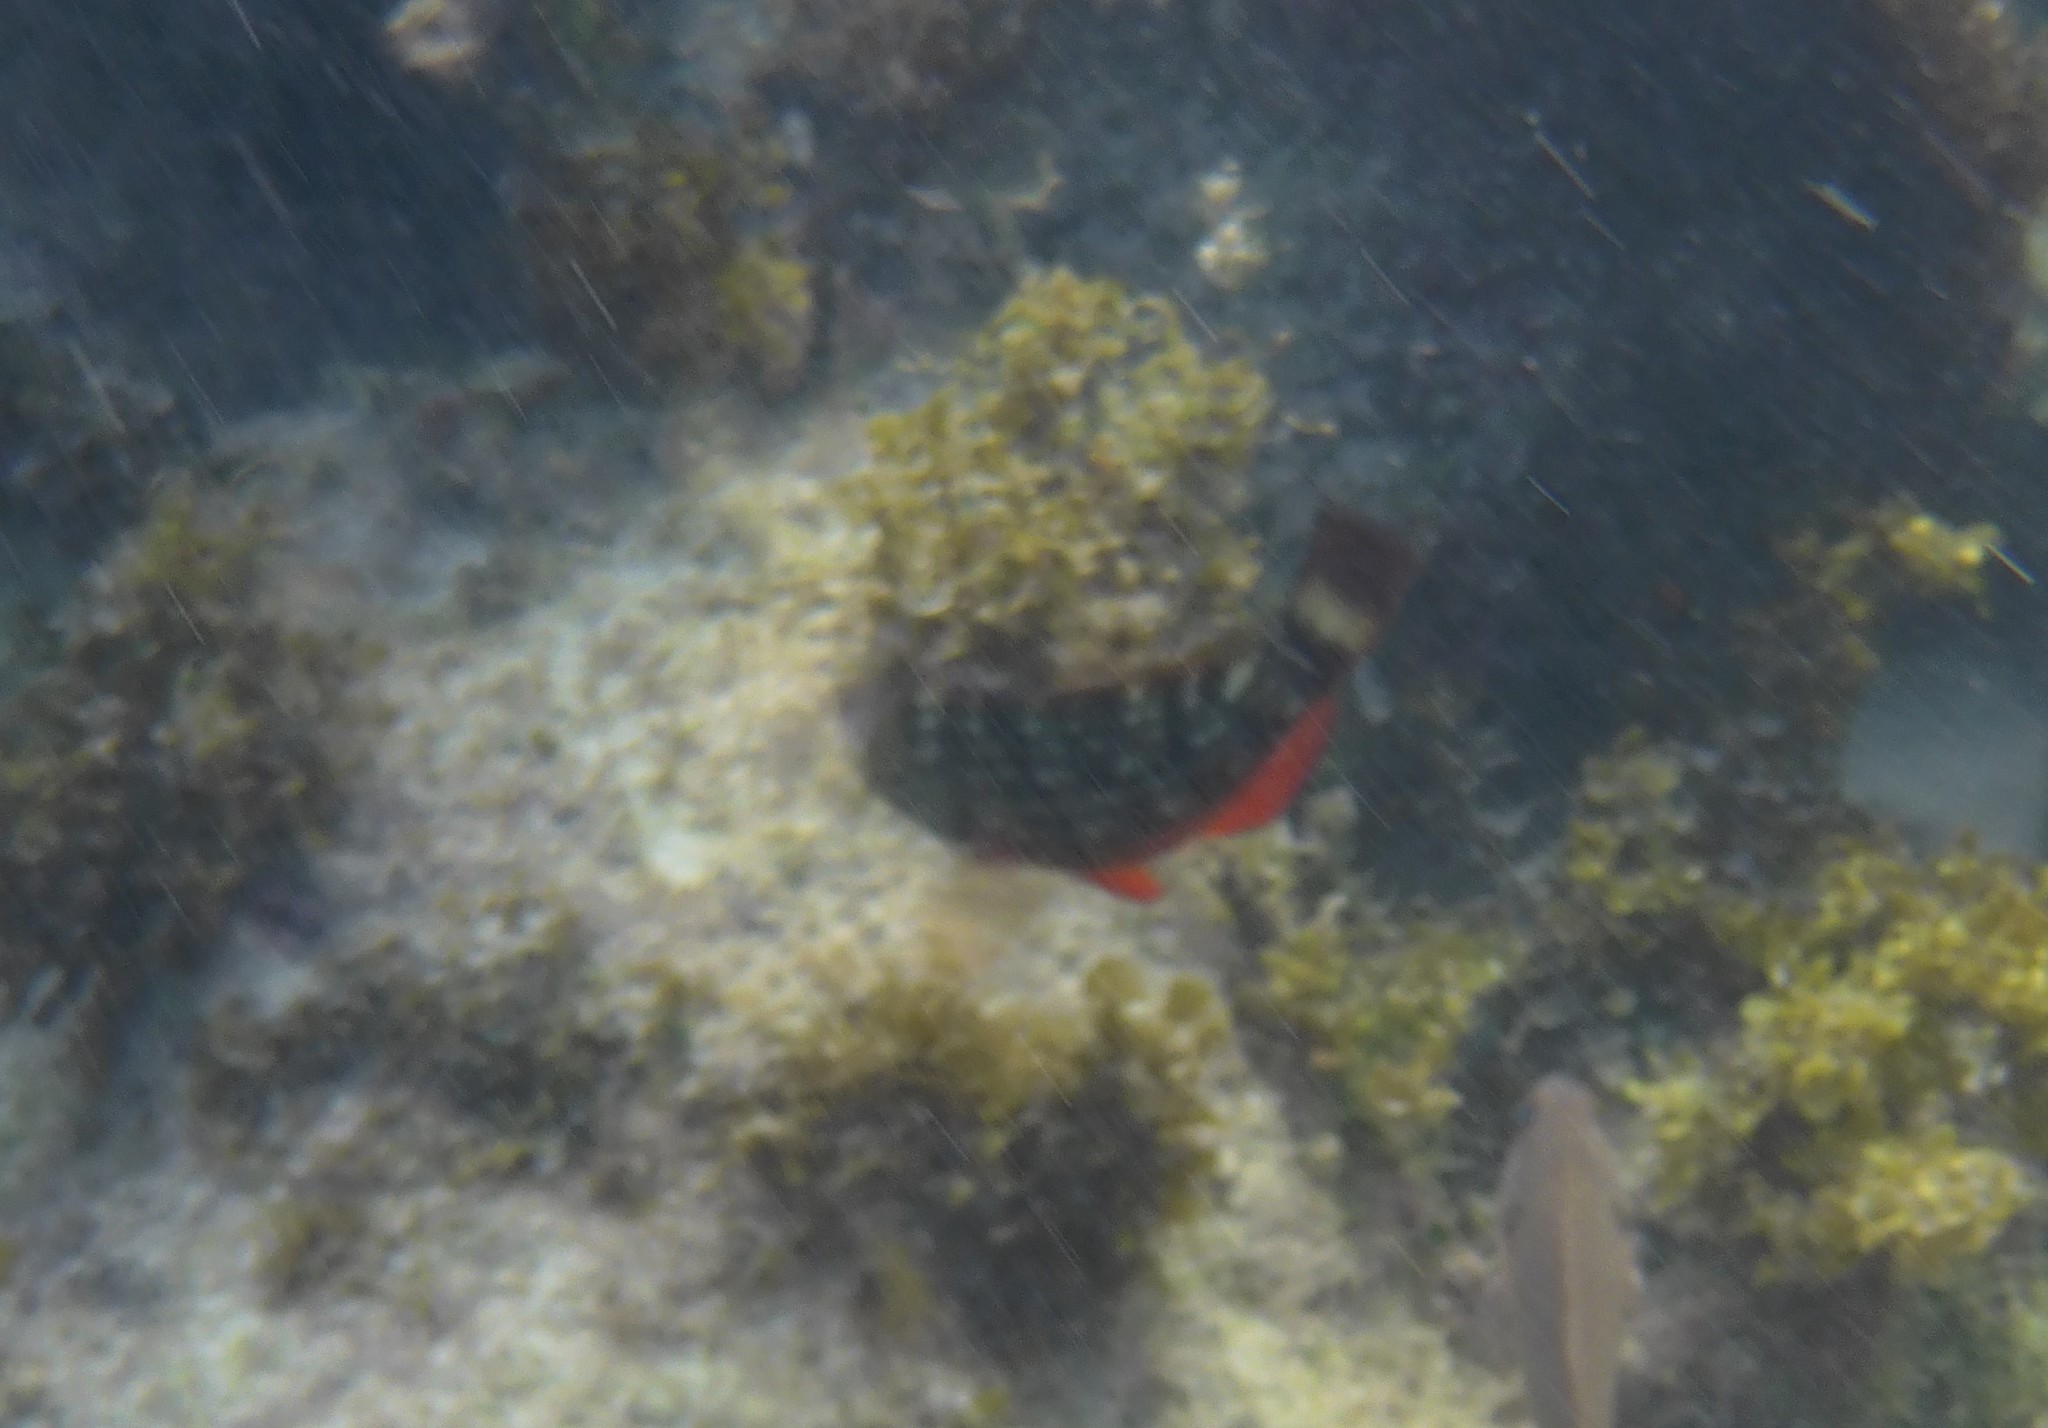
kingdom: Animalia
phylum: Chordata
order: Perciformes
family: Scaridae
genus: Sparisoma
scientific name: Sparisoma viride
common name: Stoplight parrotfish
